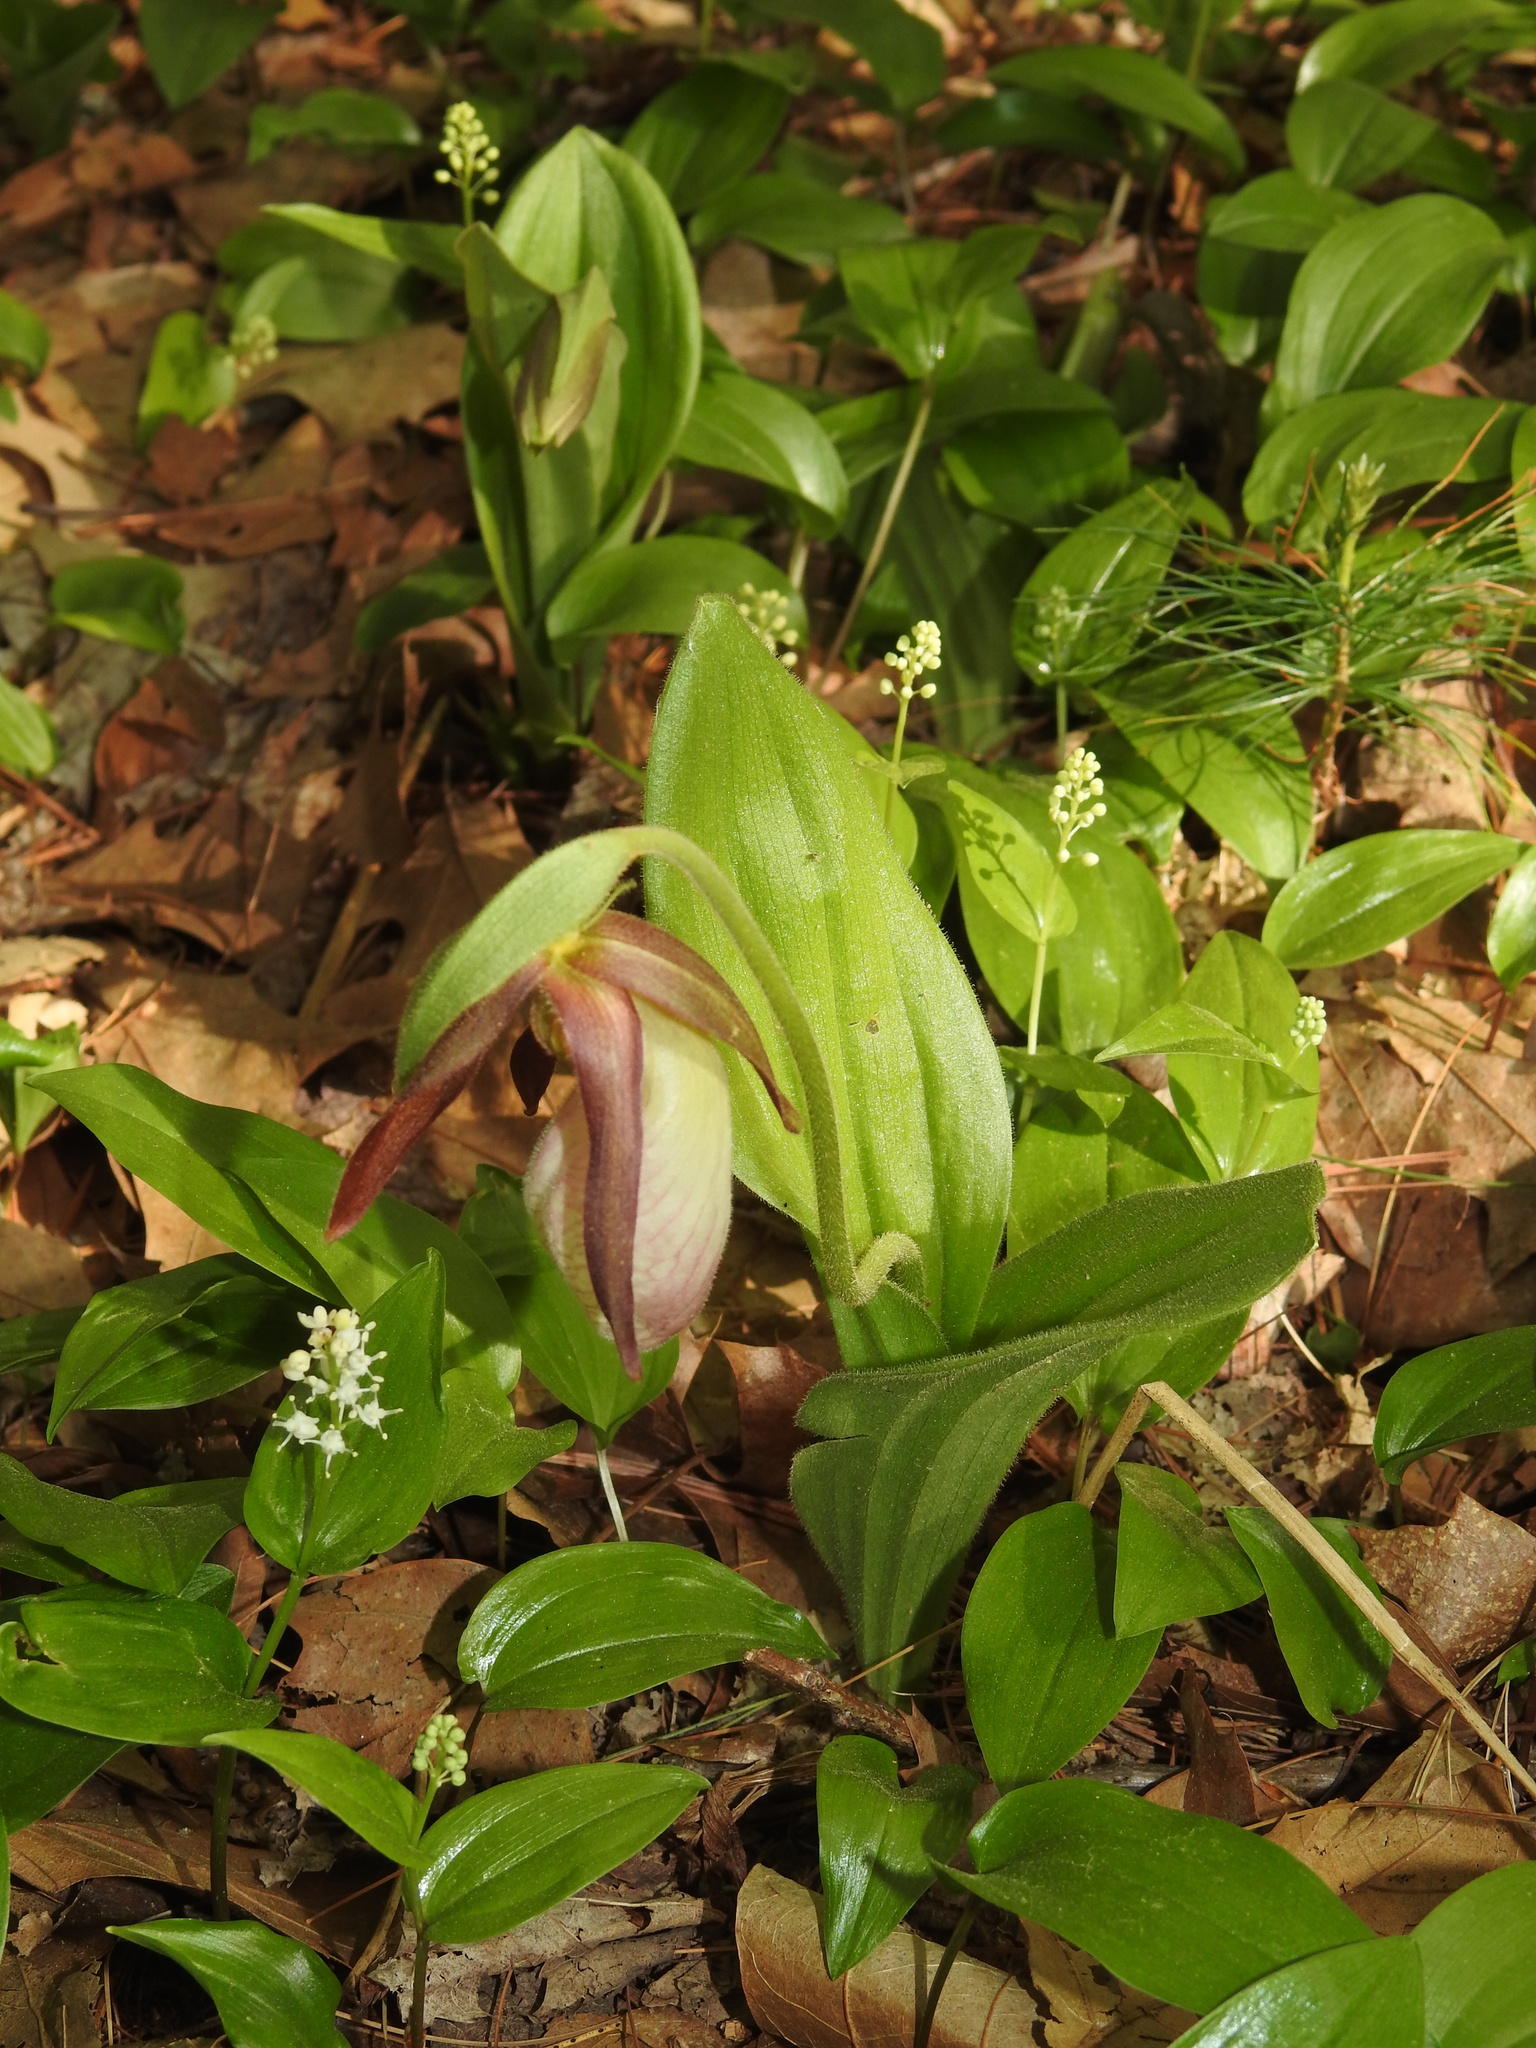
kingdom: Plantae
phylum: Tracheophyta
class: Liliopsida
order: Asparagales
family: Orchidaceae
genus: Cypripedium
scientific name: Cypripedium acaule
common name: Pink lady's-slipper
